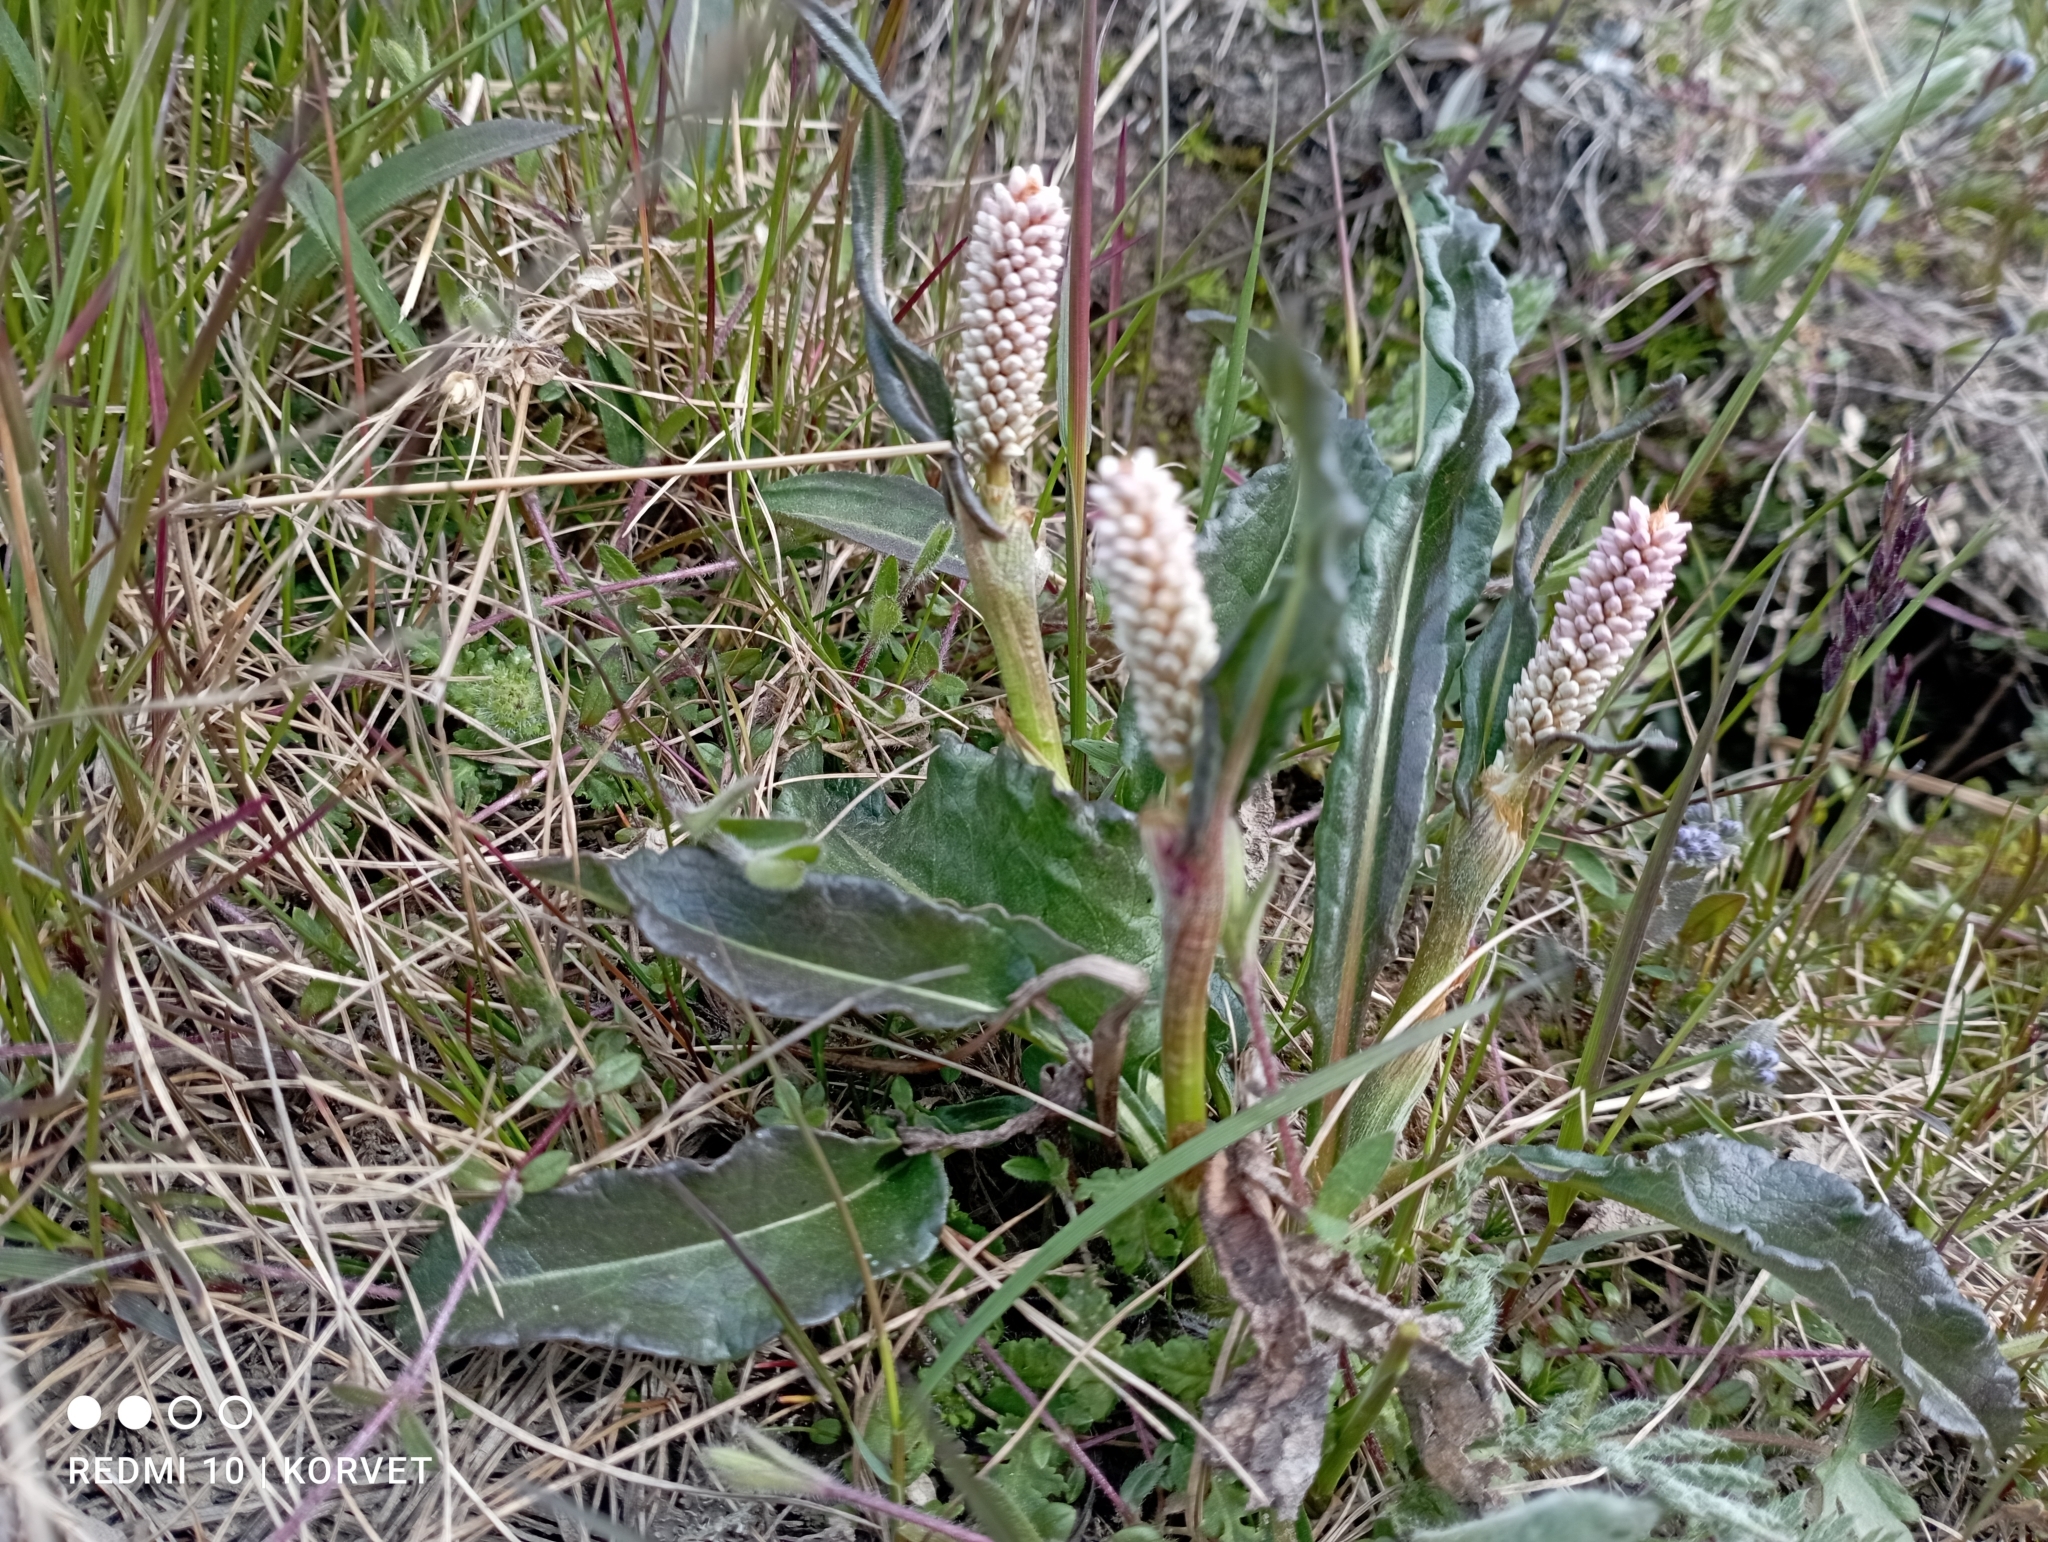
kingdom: Plantae
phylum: Tracheophyta
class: Magnoliopsida
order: Caryophyllales
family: Polygonaceae
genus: Bistorta
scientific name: Bistorta officinalis
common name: Common bistort
